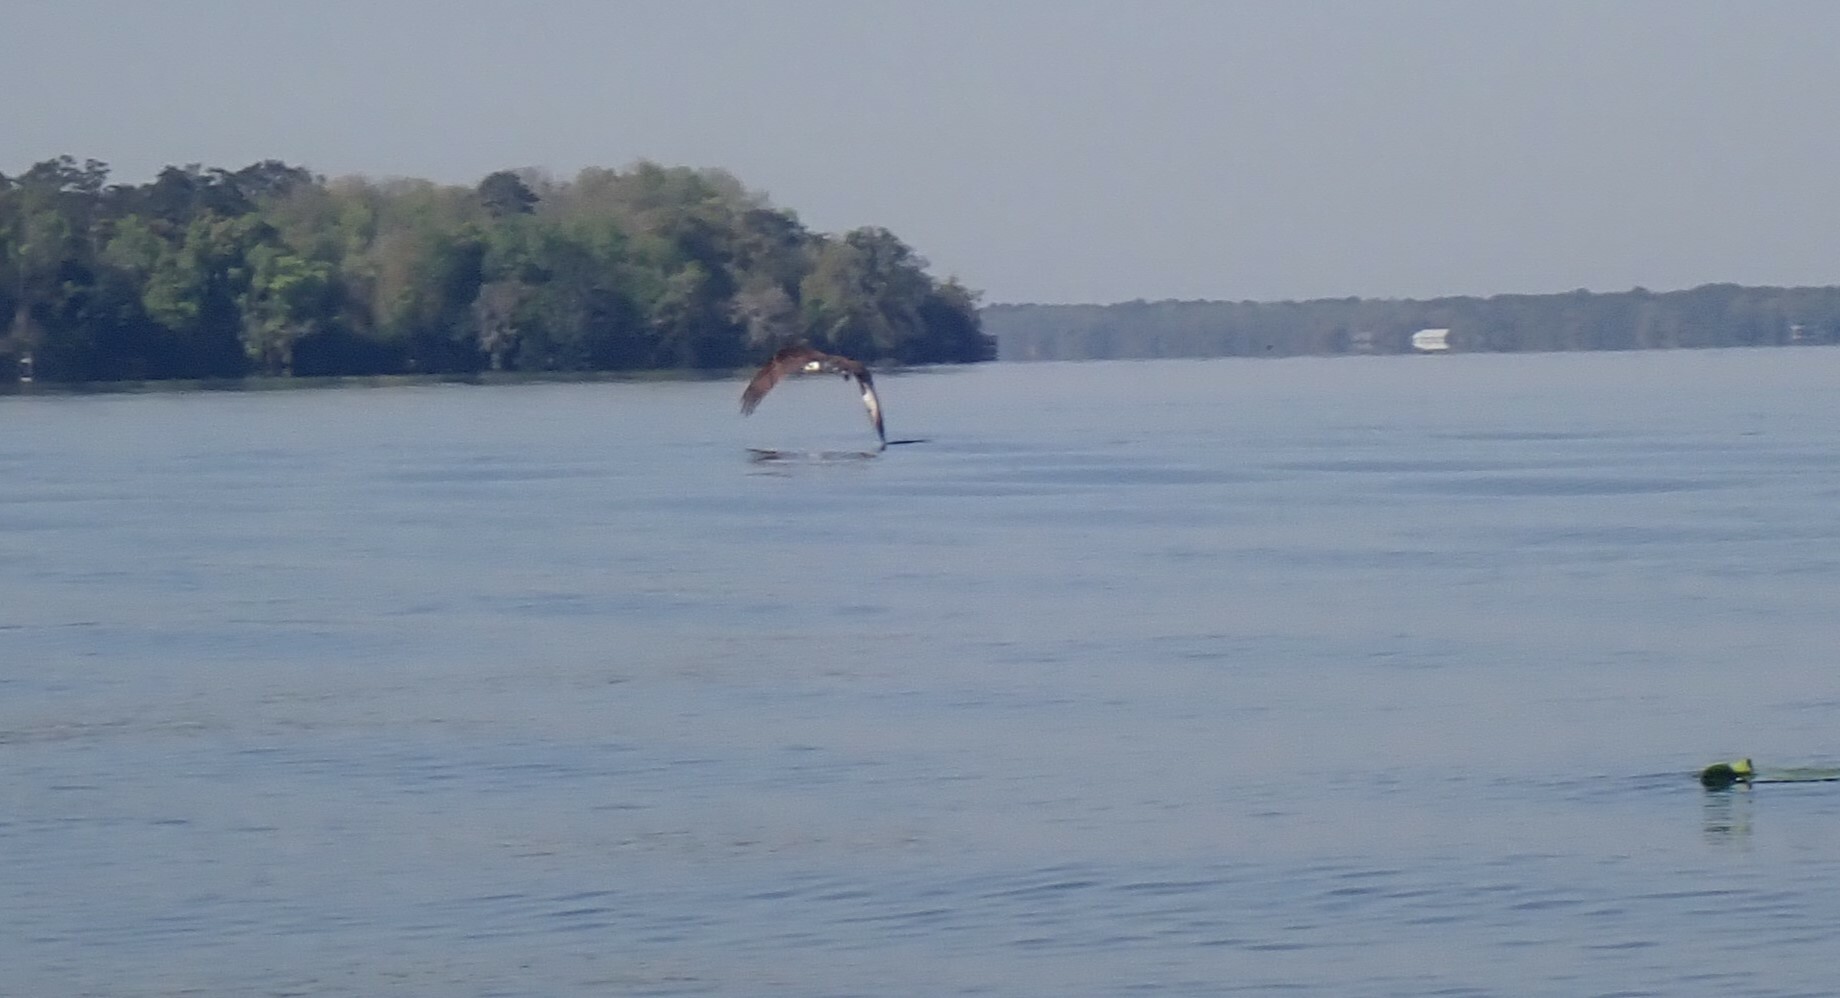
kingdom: Animalia
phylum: Chordata
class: Aves
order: Accipitriformes
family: Pandionidae
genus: Pandion
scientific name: Pandion haliaetus
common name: Osprey
